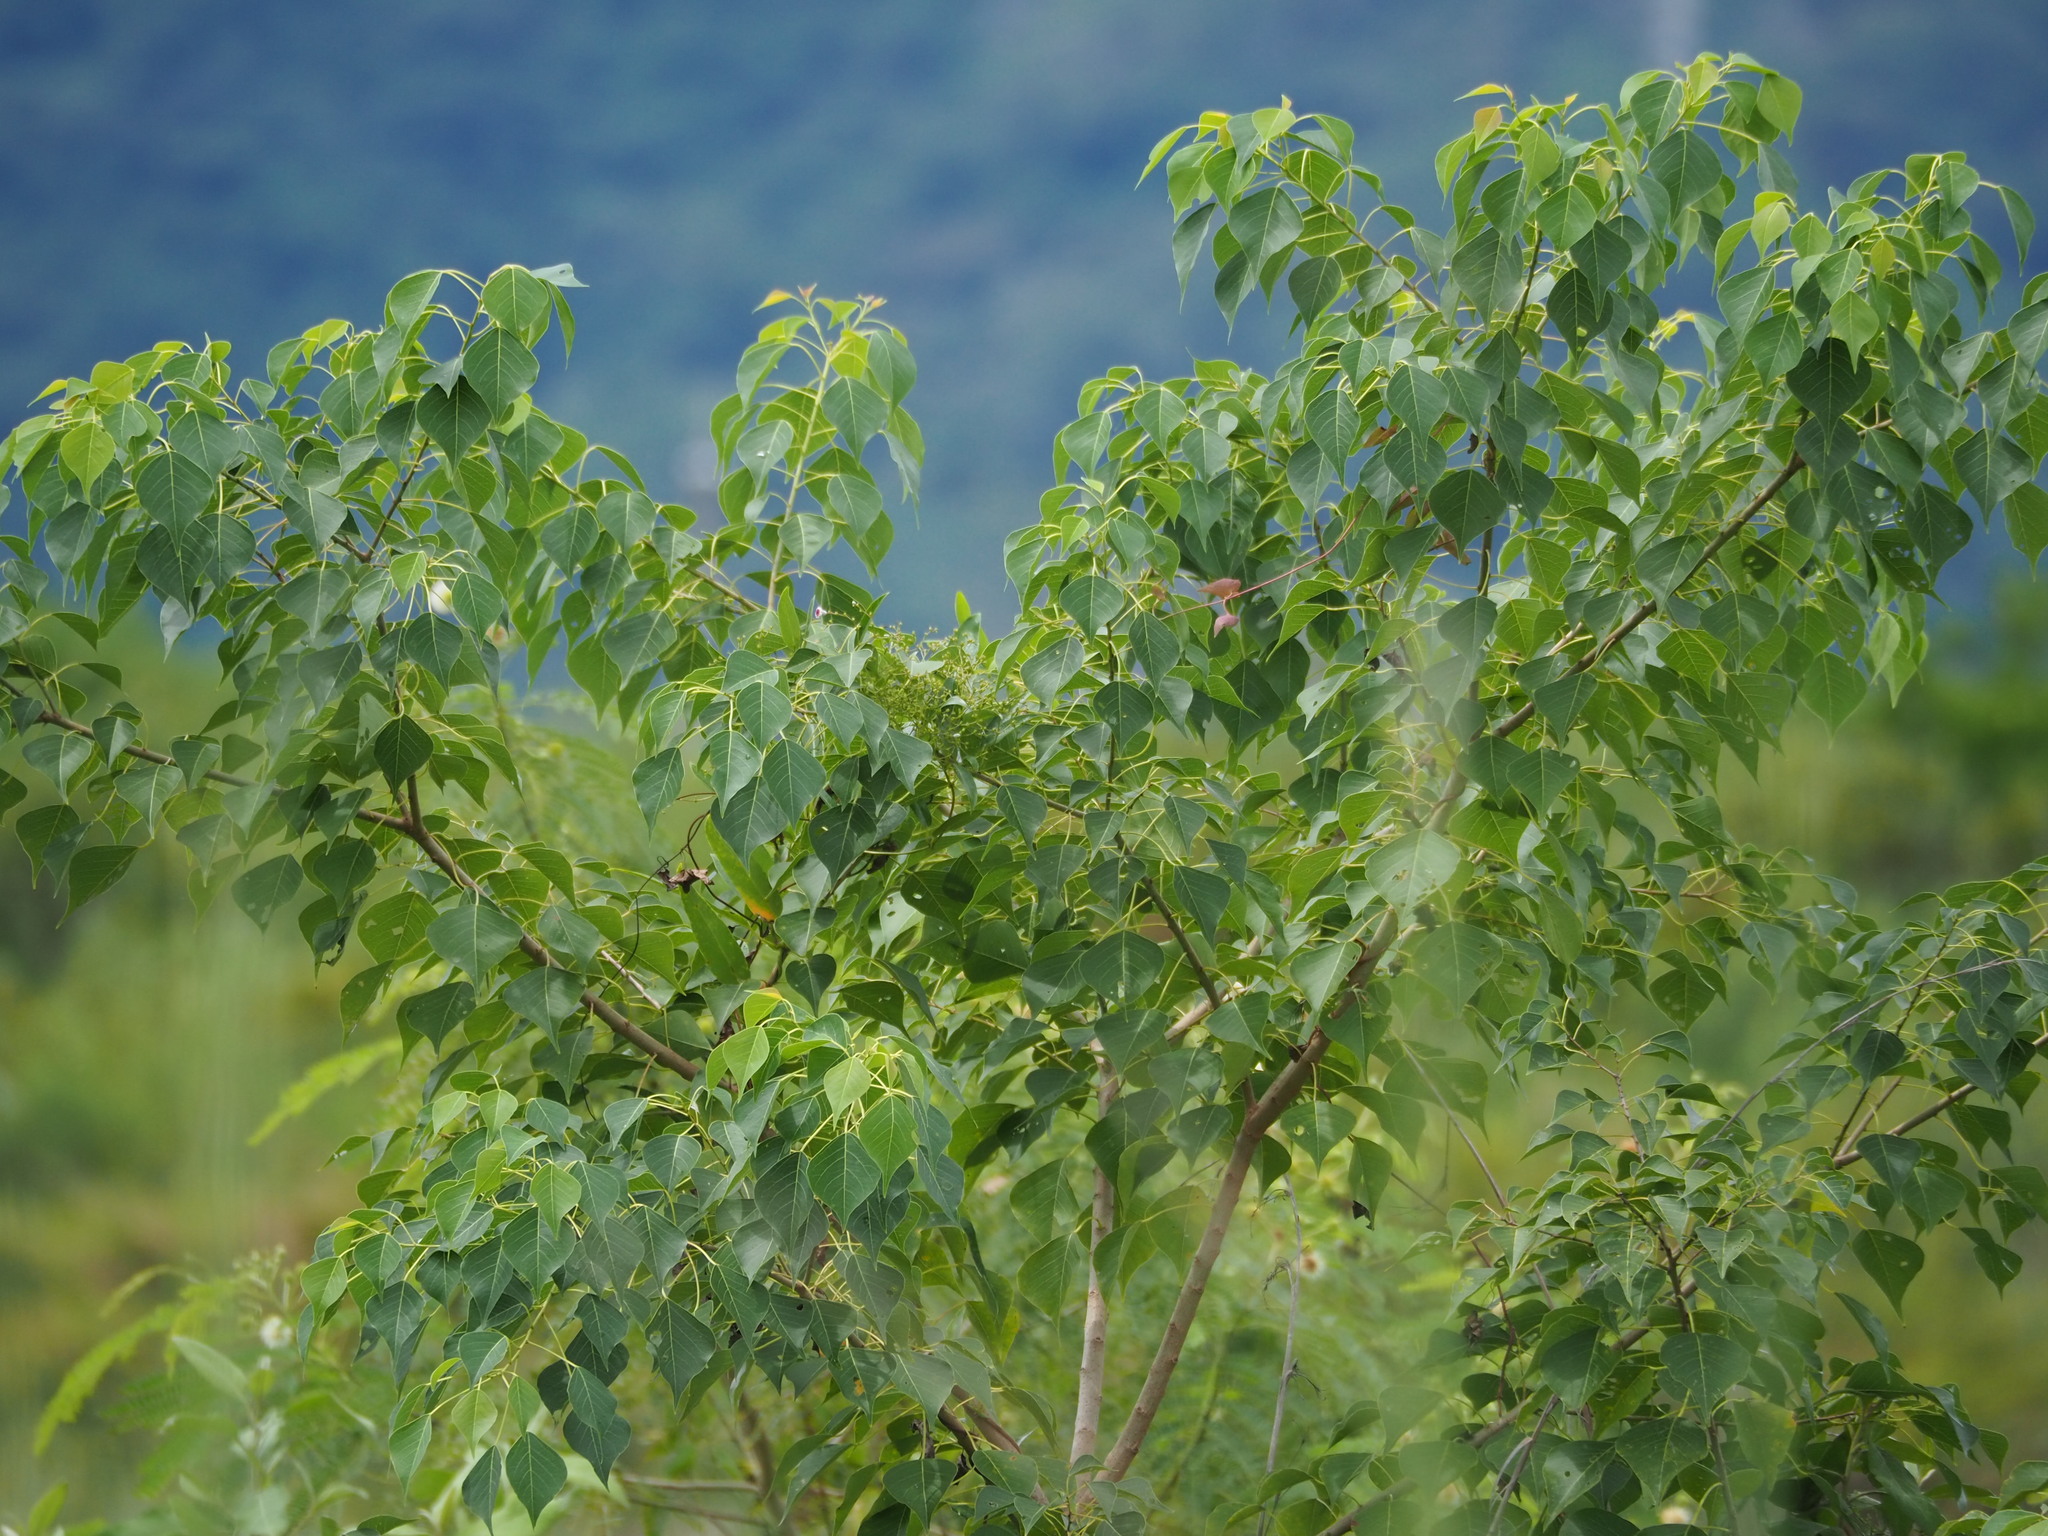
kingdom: Plantae
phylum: Tracheophyta
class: Magnoliopsida
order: Malpighiales
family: Euphorbiaceae
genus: Triadica
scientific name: Triadica sebifera
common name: Chinese tallow
